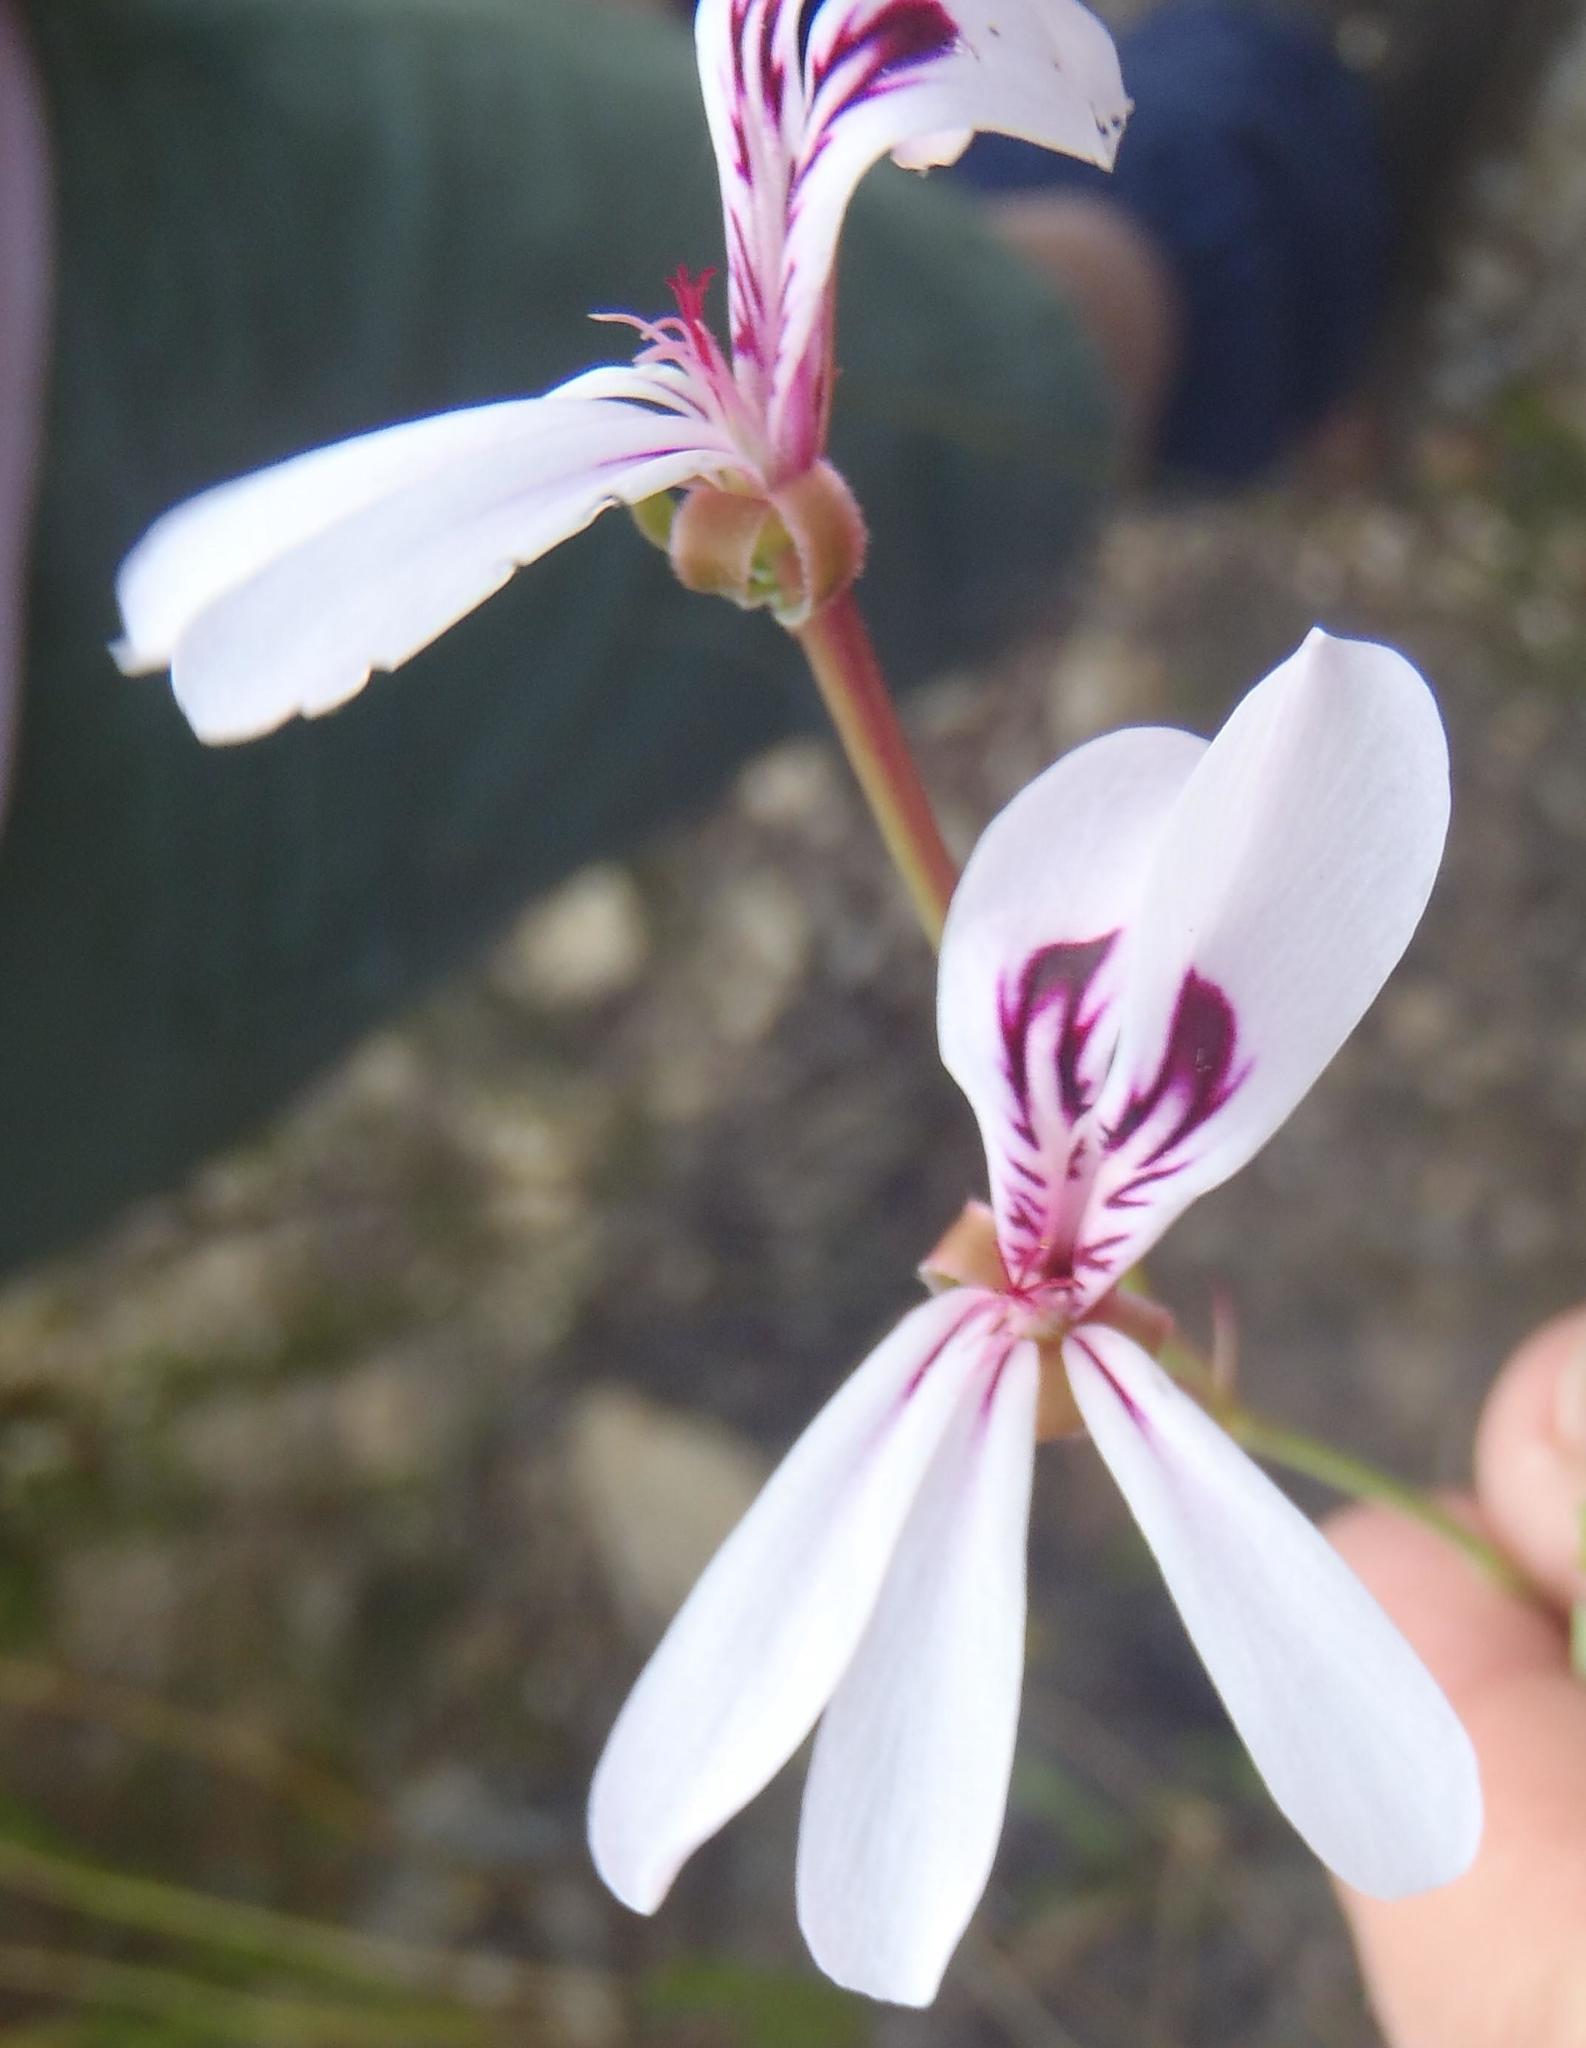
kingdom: Plantae
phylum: Tracheophyta
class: Magnoliopsida
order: Geraniales
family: Geraniaceae
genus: Pelargonium
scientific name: Pelargonium laevigatum
